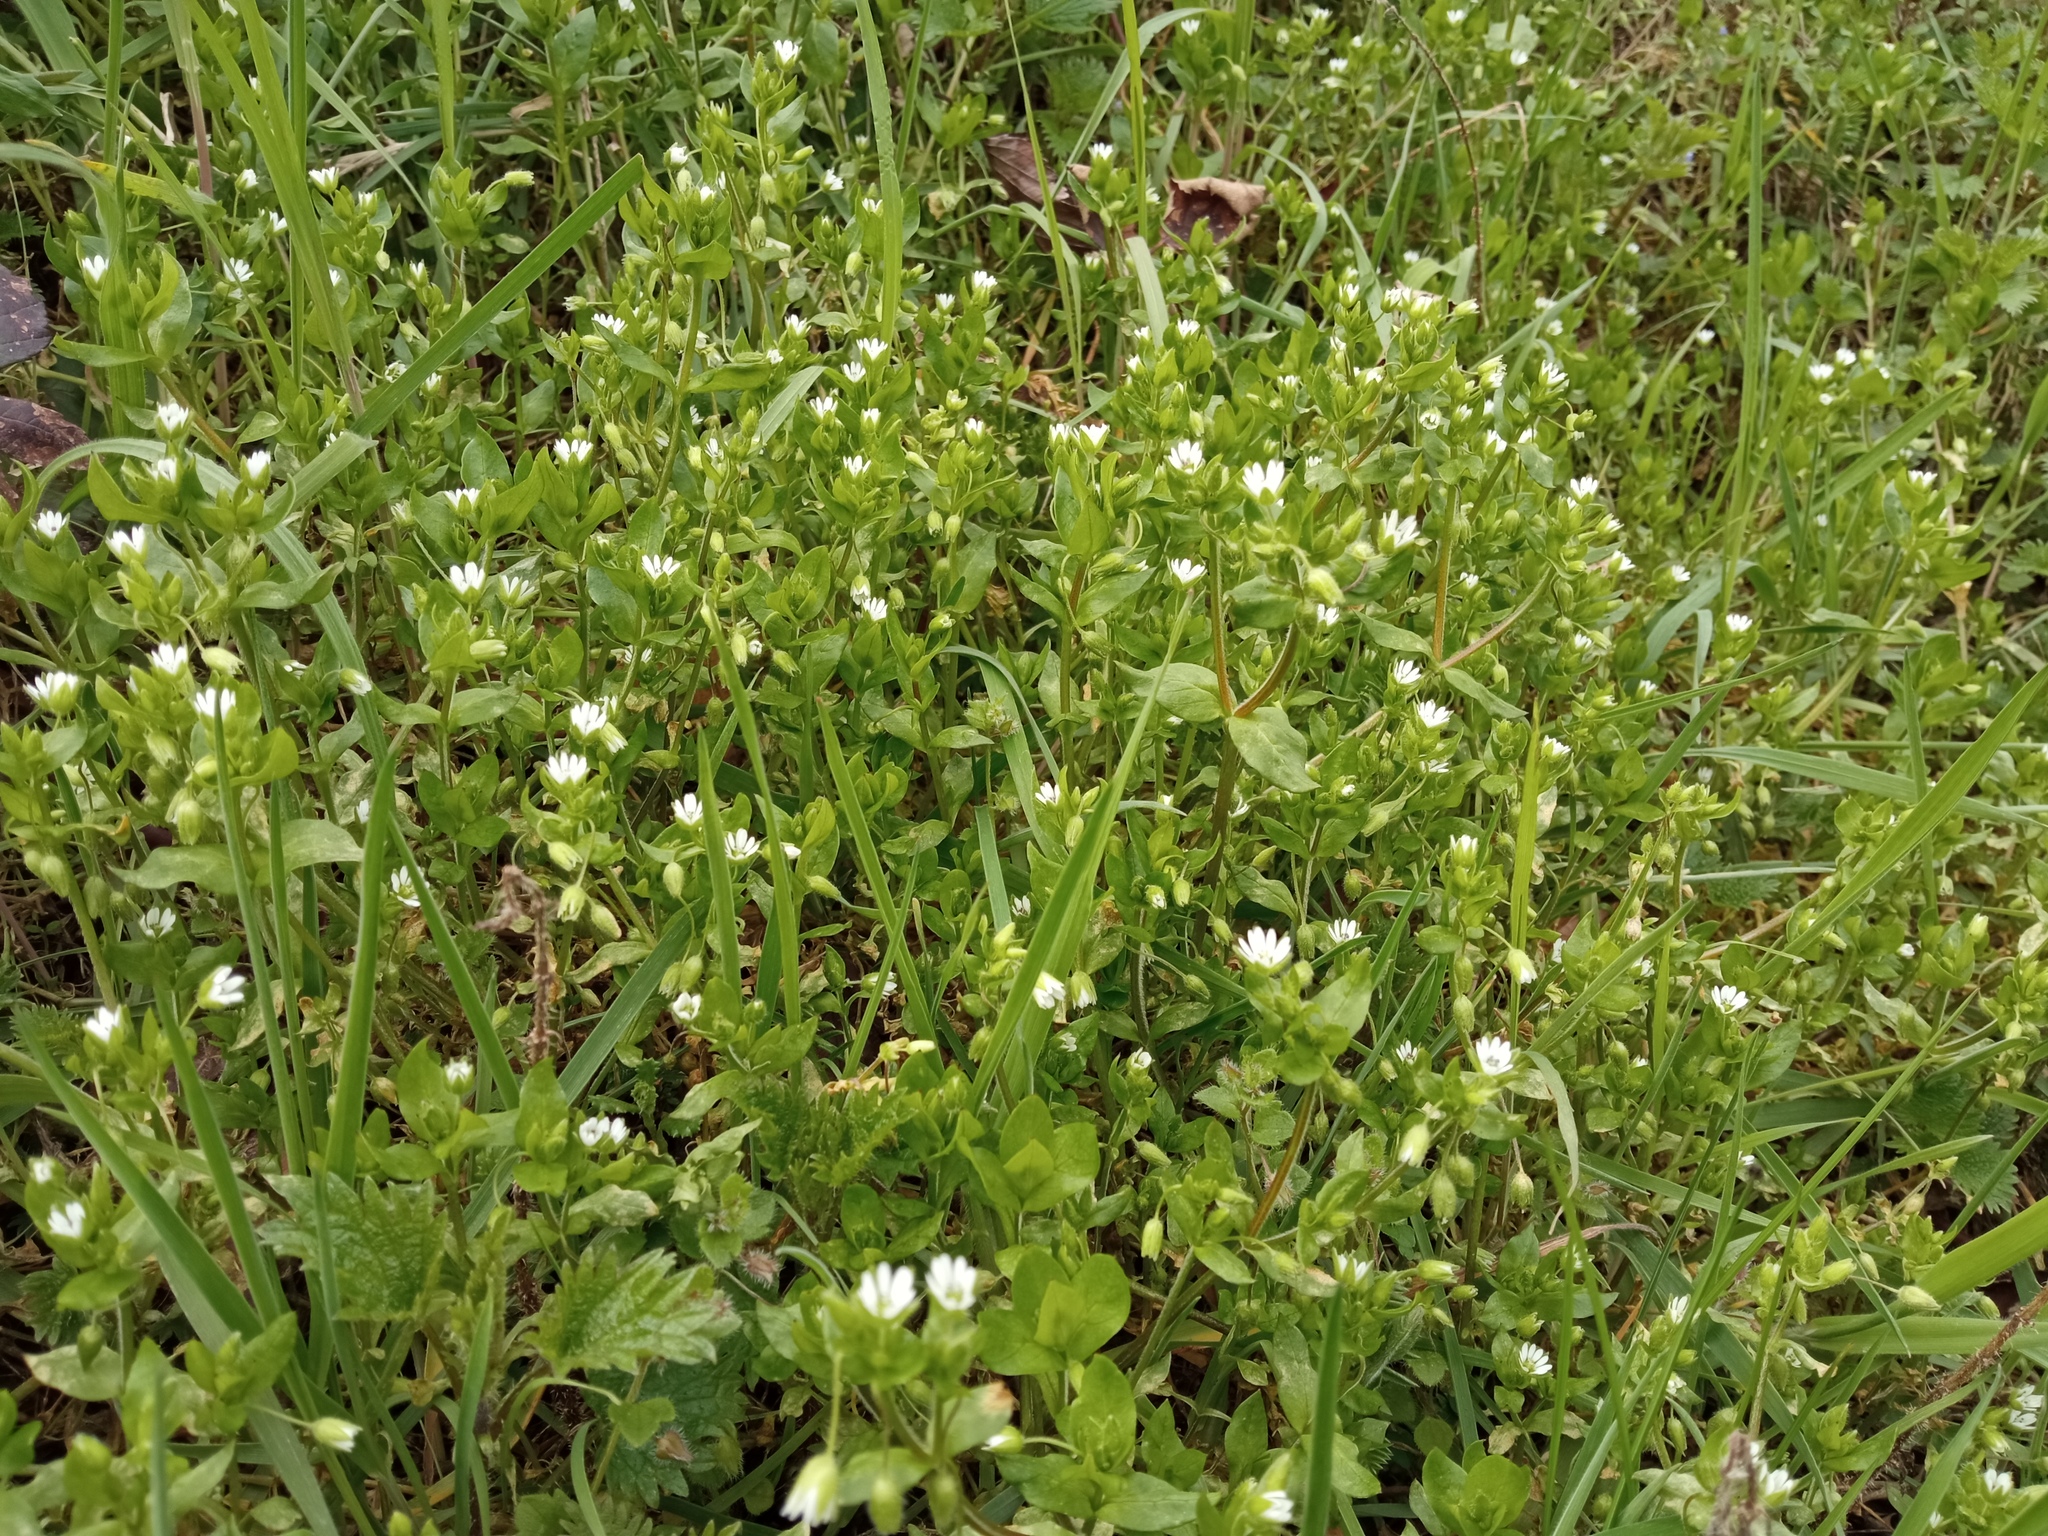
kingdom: Plantae
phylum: Tracheophyta
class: Magnoliopsida
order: Caryophyllales
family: Caryophyllaceae
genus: Stellaria
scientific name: Stellaria media
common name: Common chickweed
